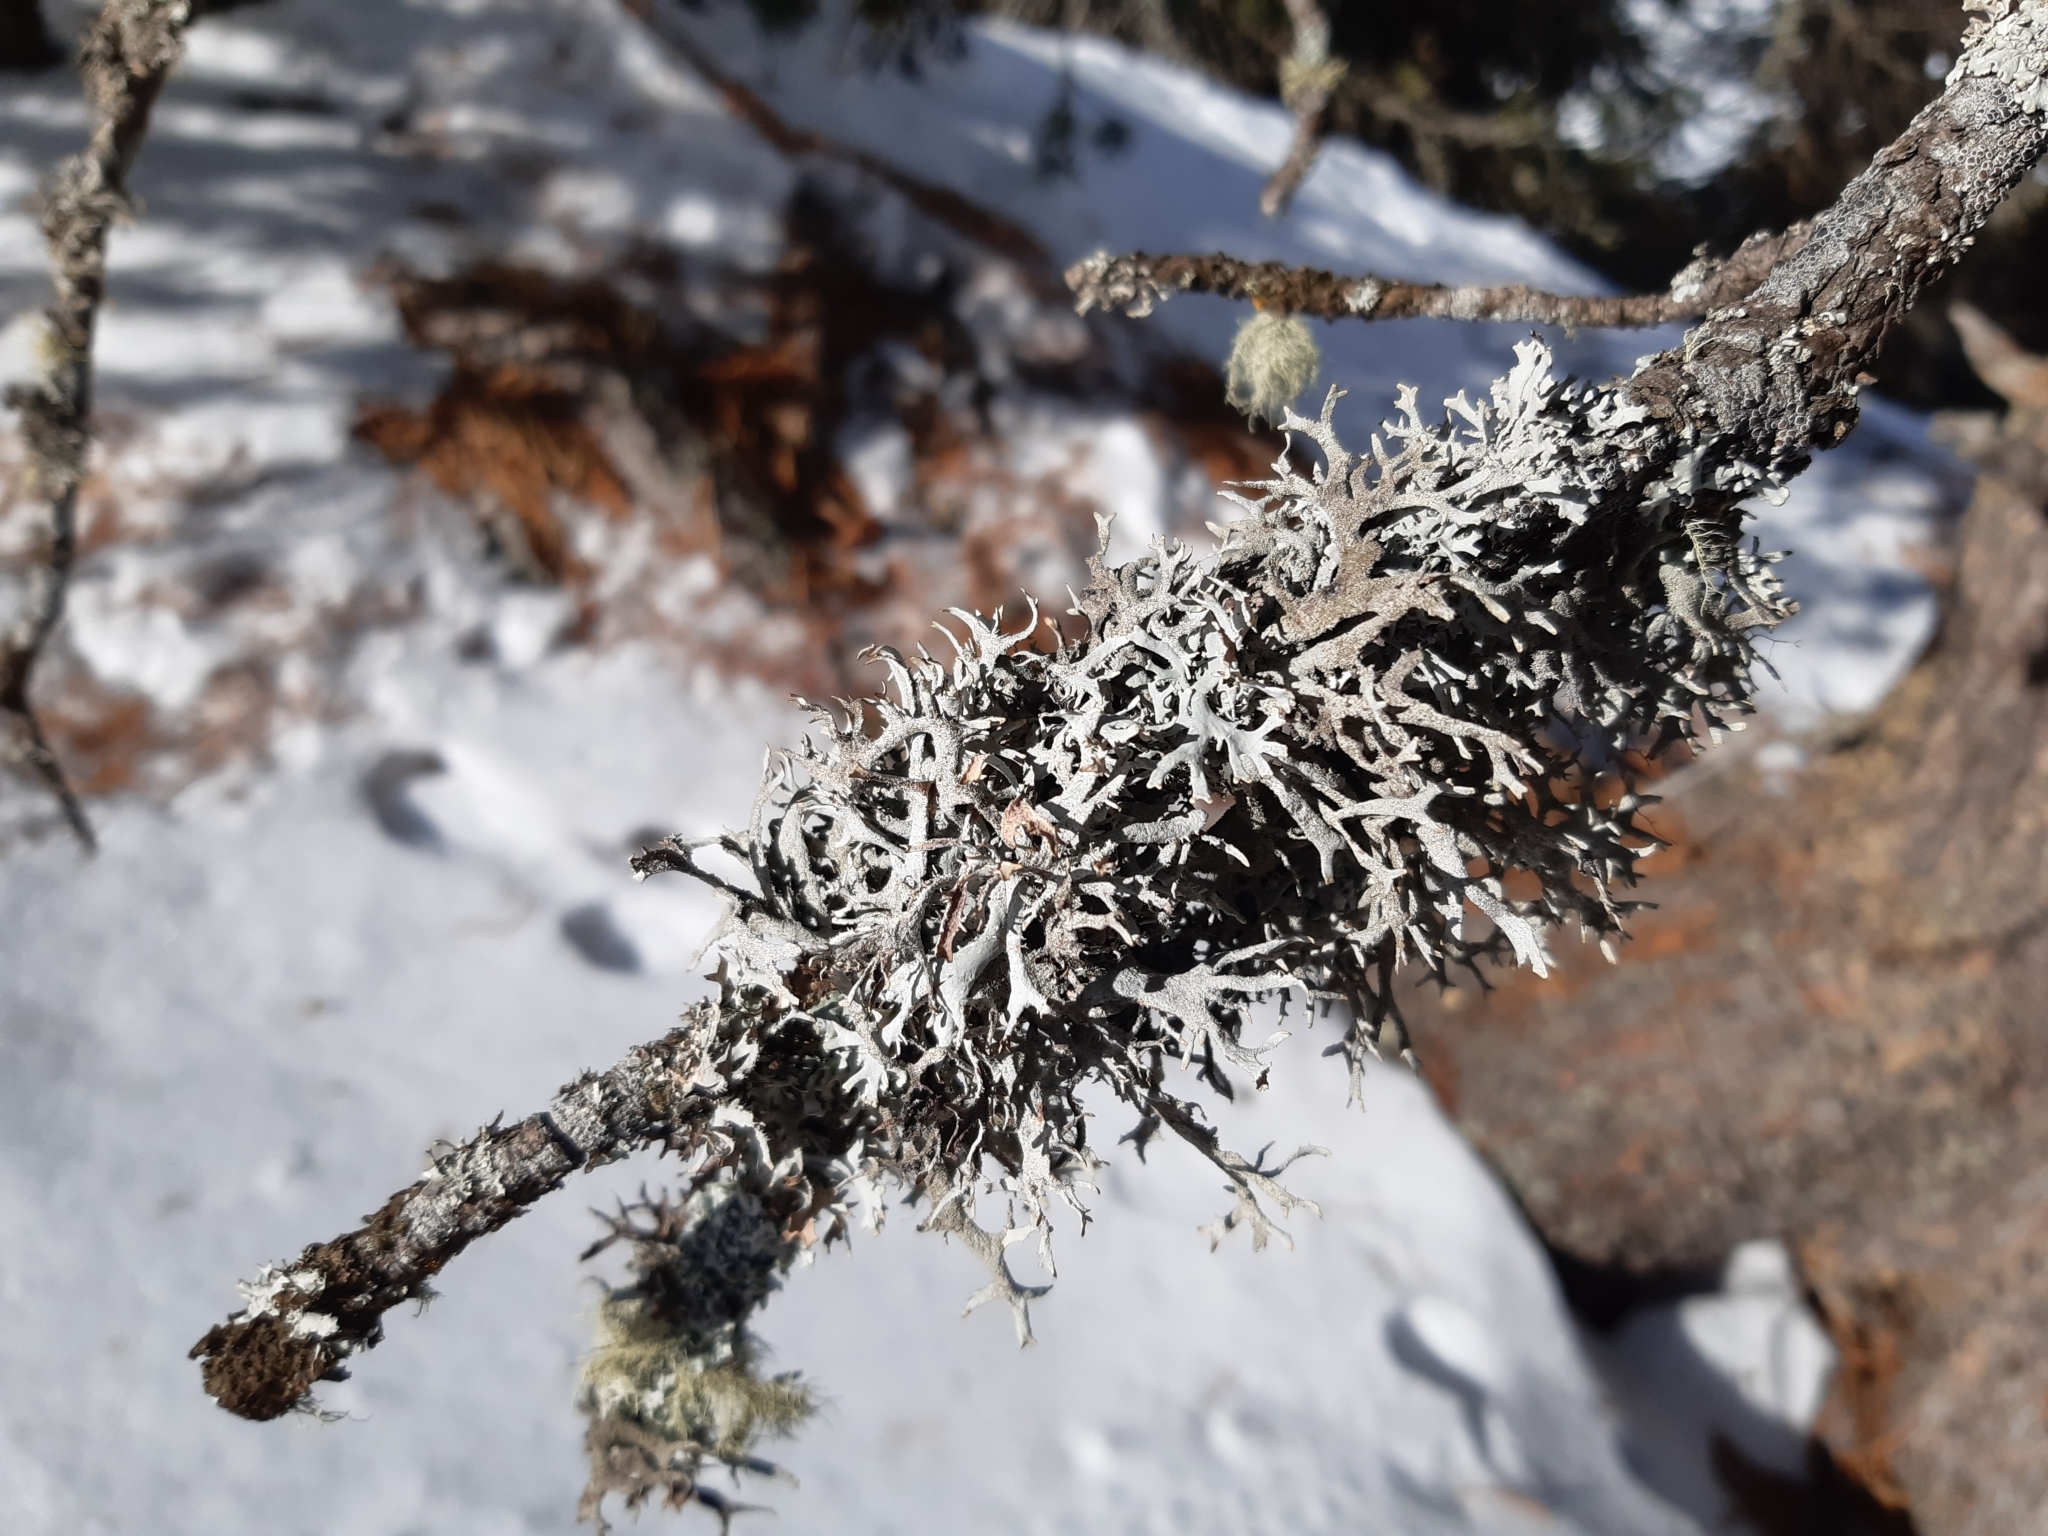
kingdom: Fungi
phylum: Ascomycota
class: Lecanoromycetes
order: Lecanorales
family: Parmeliaceae
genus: Pseudevernia
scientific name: Pseudevernia furfuracea
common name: Tree moss
